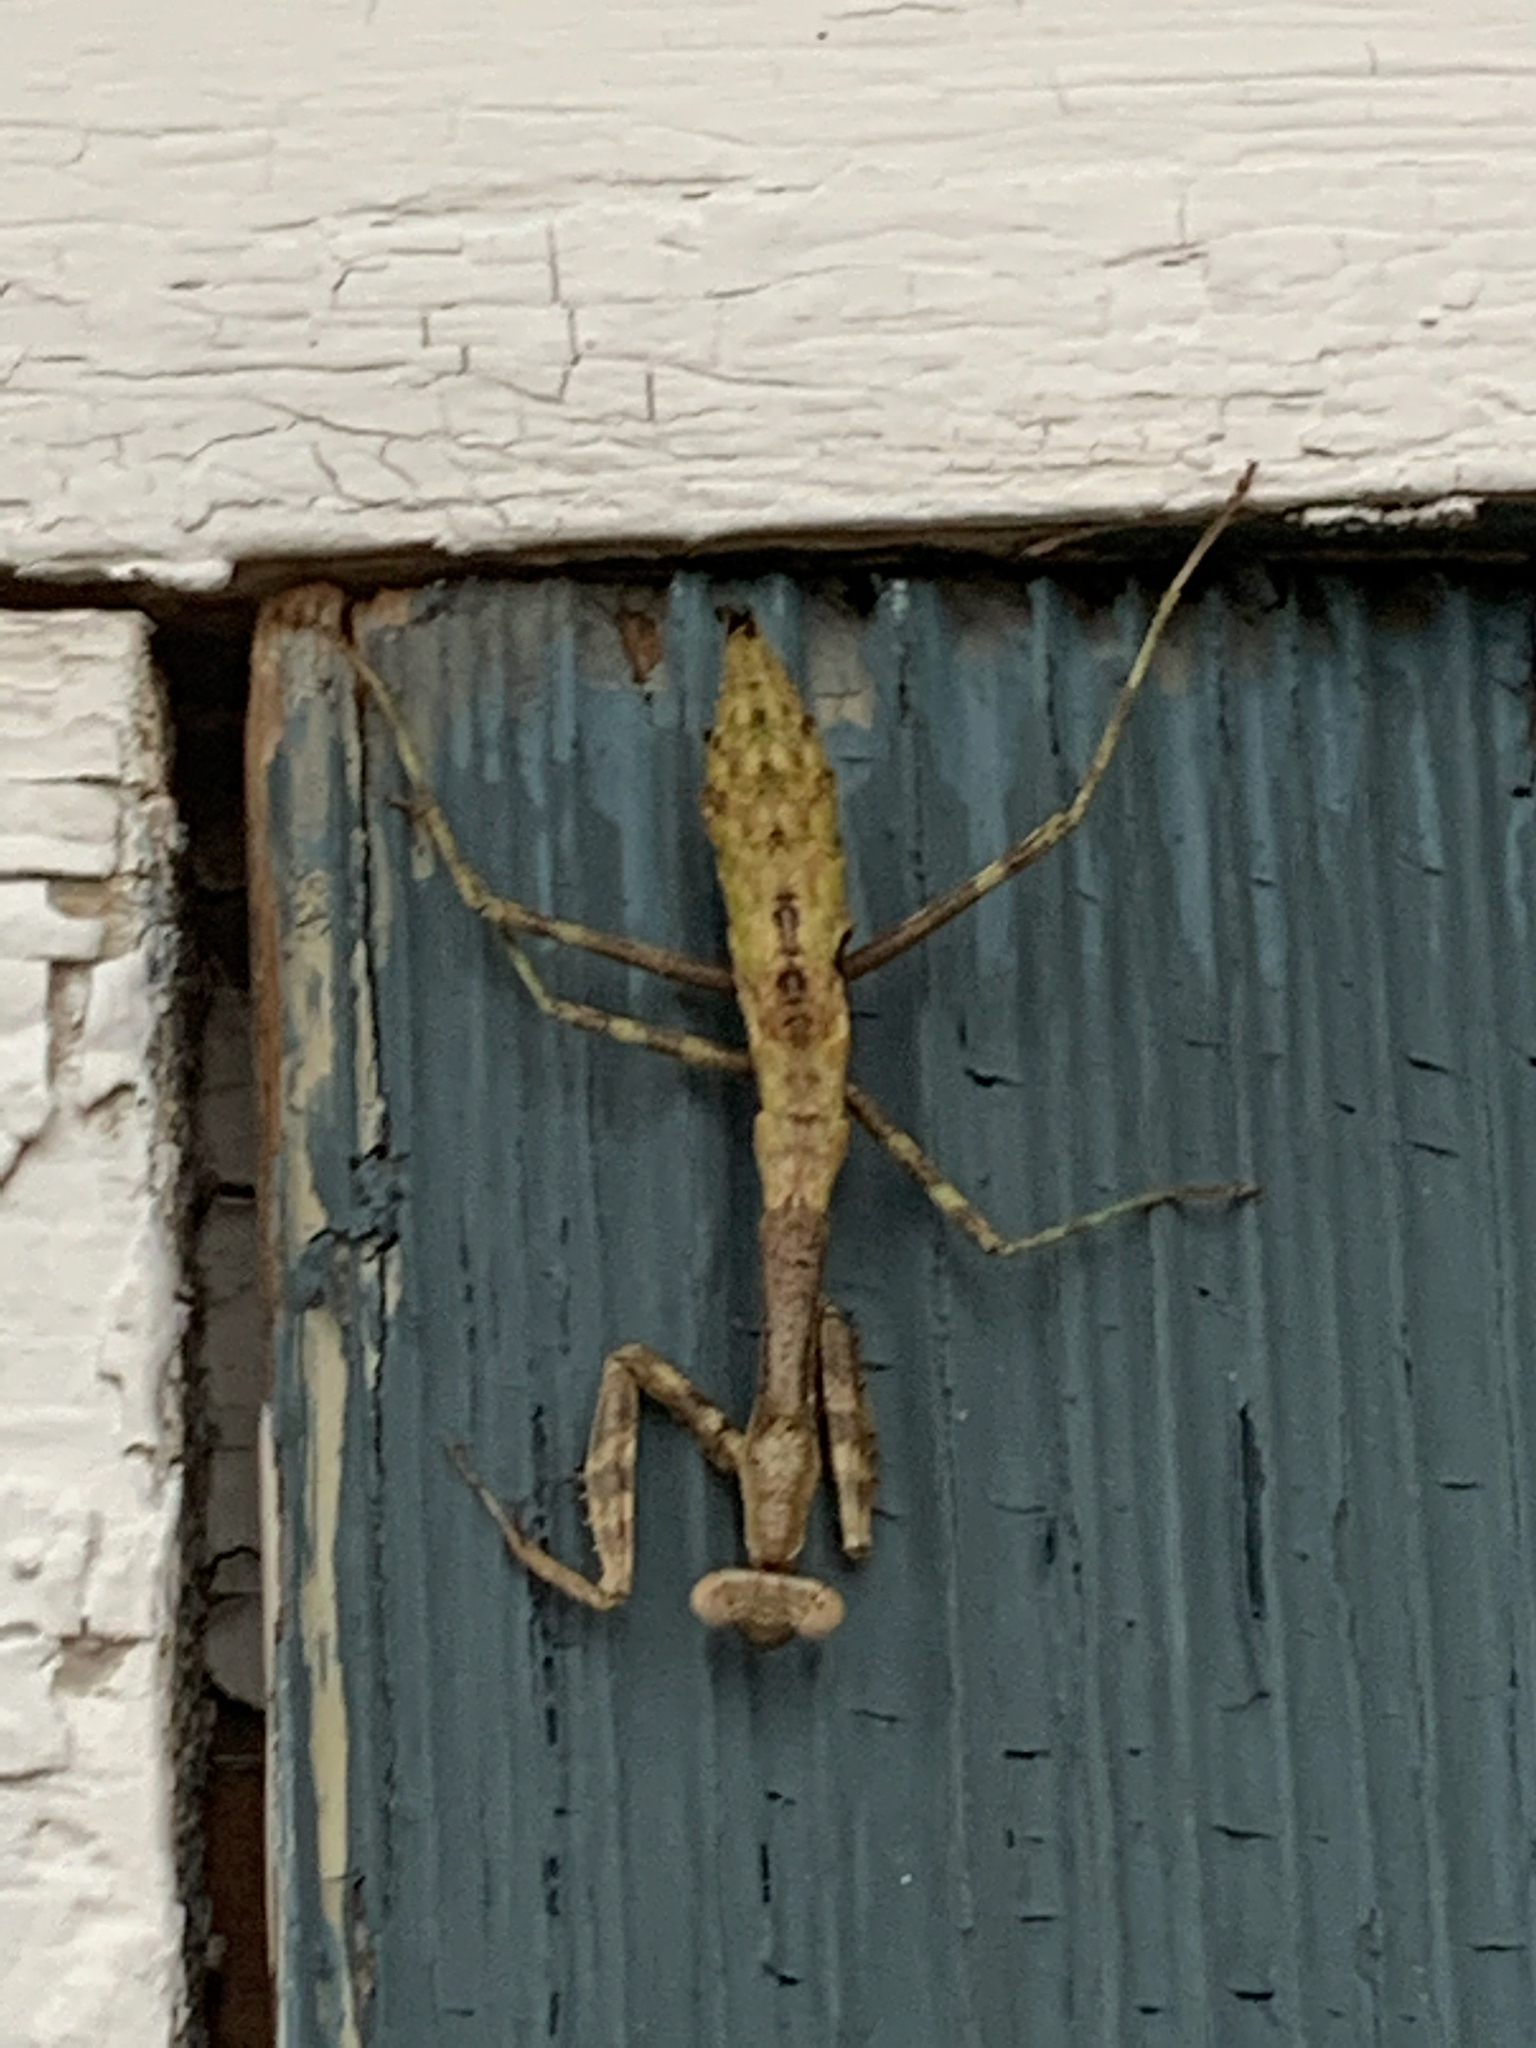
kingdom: Animalia
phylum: Arthropoda
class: Insecta
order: Mantodea
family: Mantidae
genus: Stagmomantis
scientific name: Stagmomantis carolina
